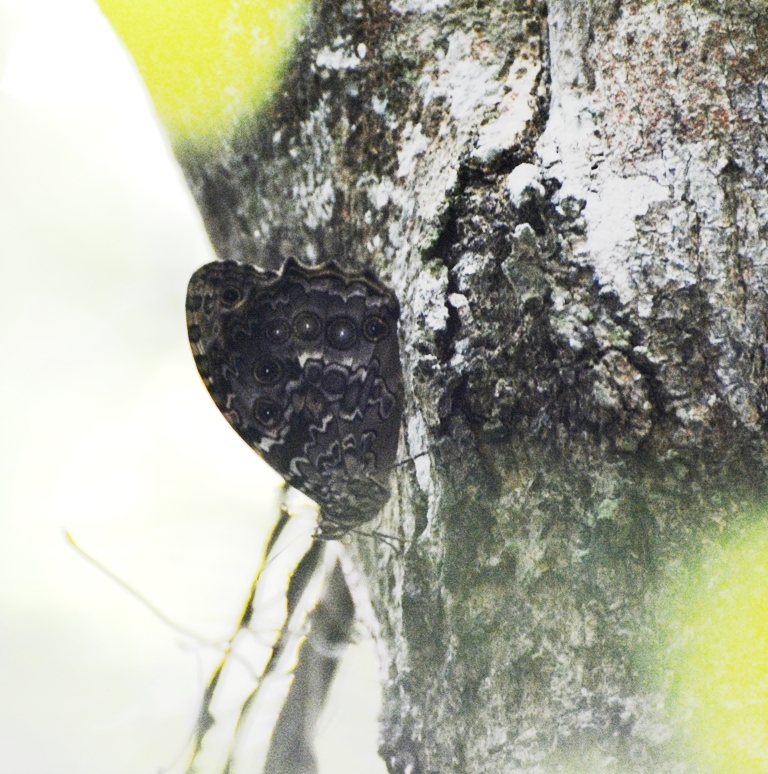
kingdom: Animalia
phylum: Arthropoda
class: Insecta
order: Lepidoptera
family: Nymphalidae
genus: Manataria
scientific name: Manataria maculata
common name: White-spotted satyr
